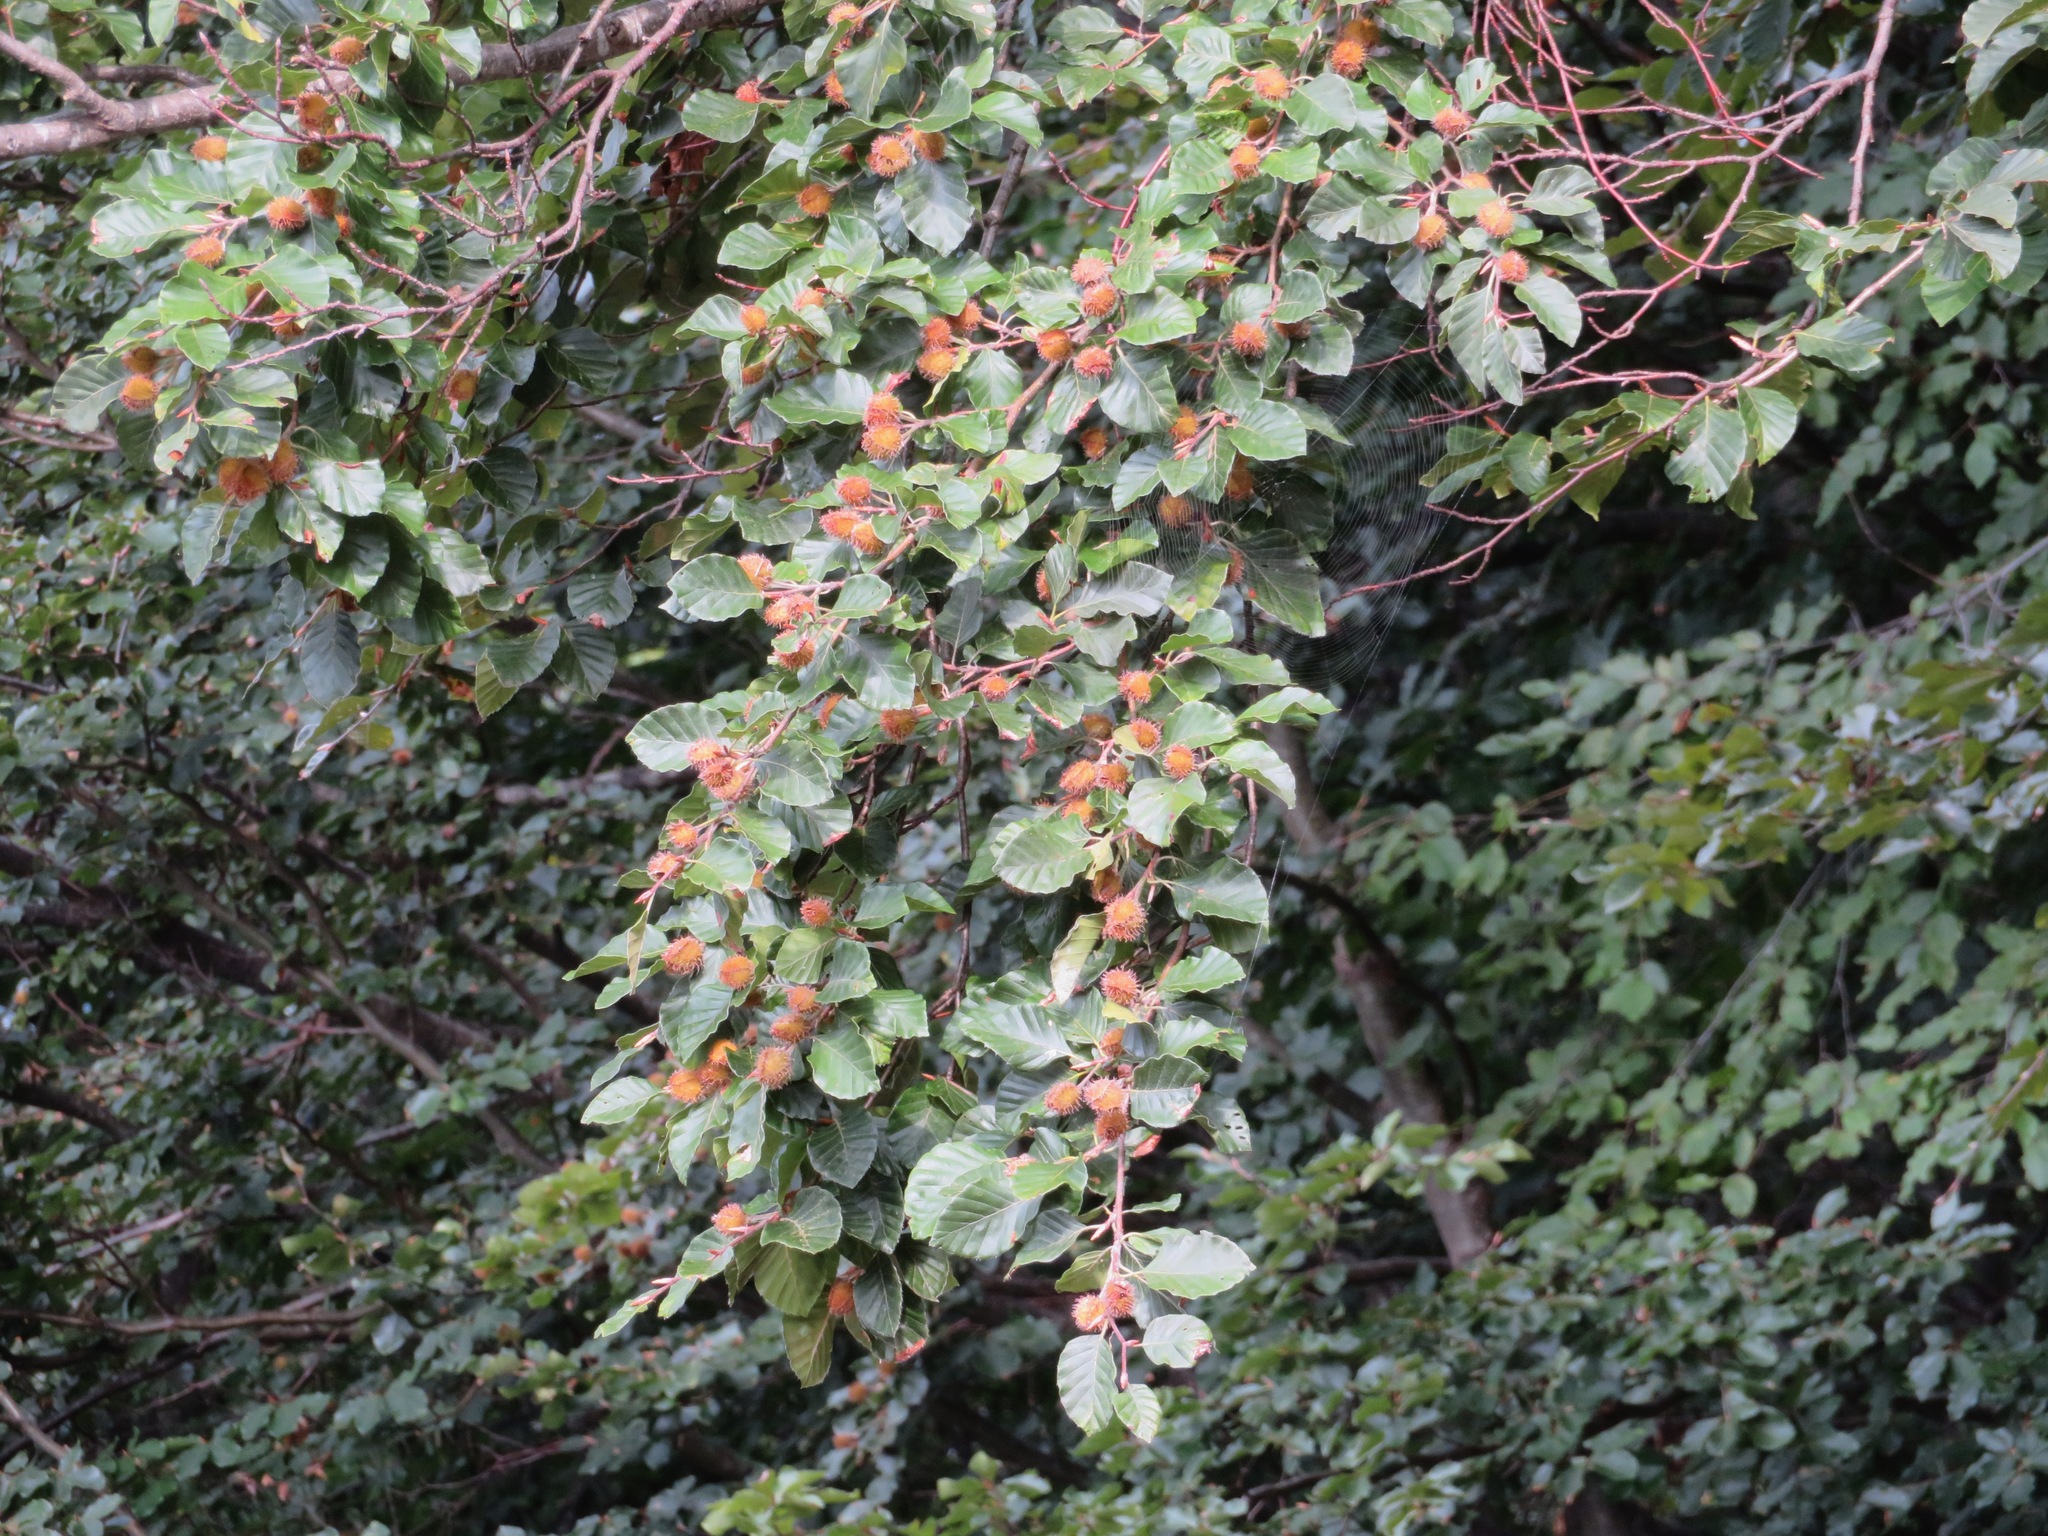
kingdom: Plantae
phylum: Tracheophyta
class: Magnoliopsida
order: Fagales
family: Fagaceae
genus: Fagus
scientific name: Fagus sylvatica
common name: Beech
